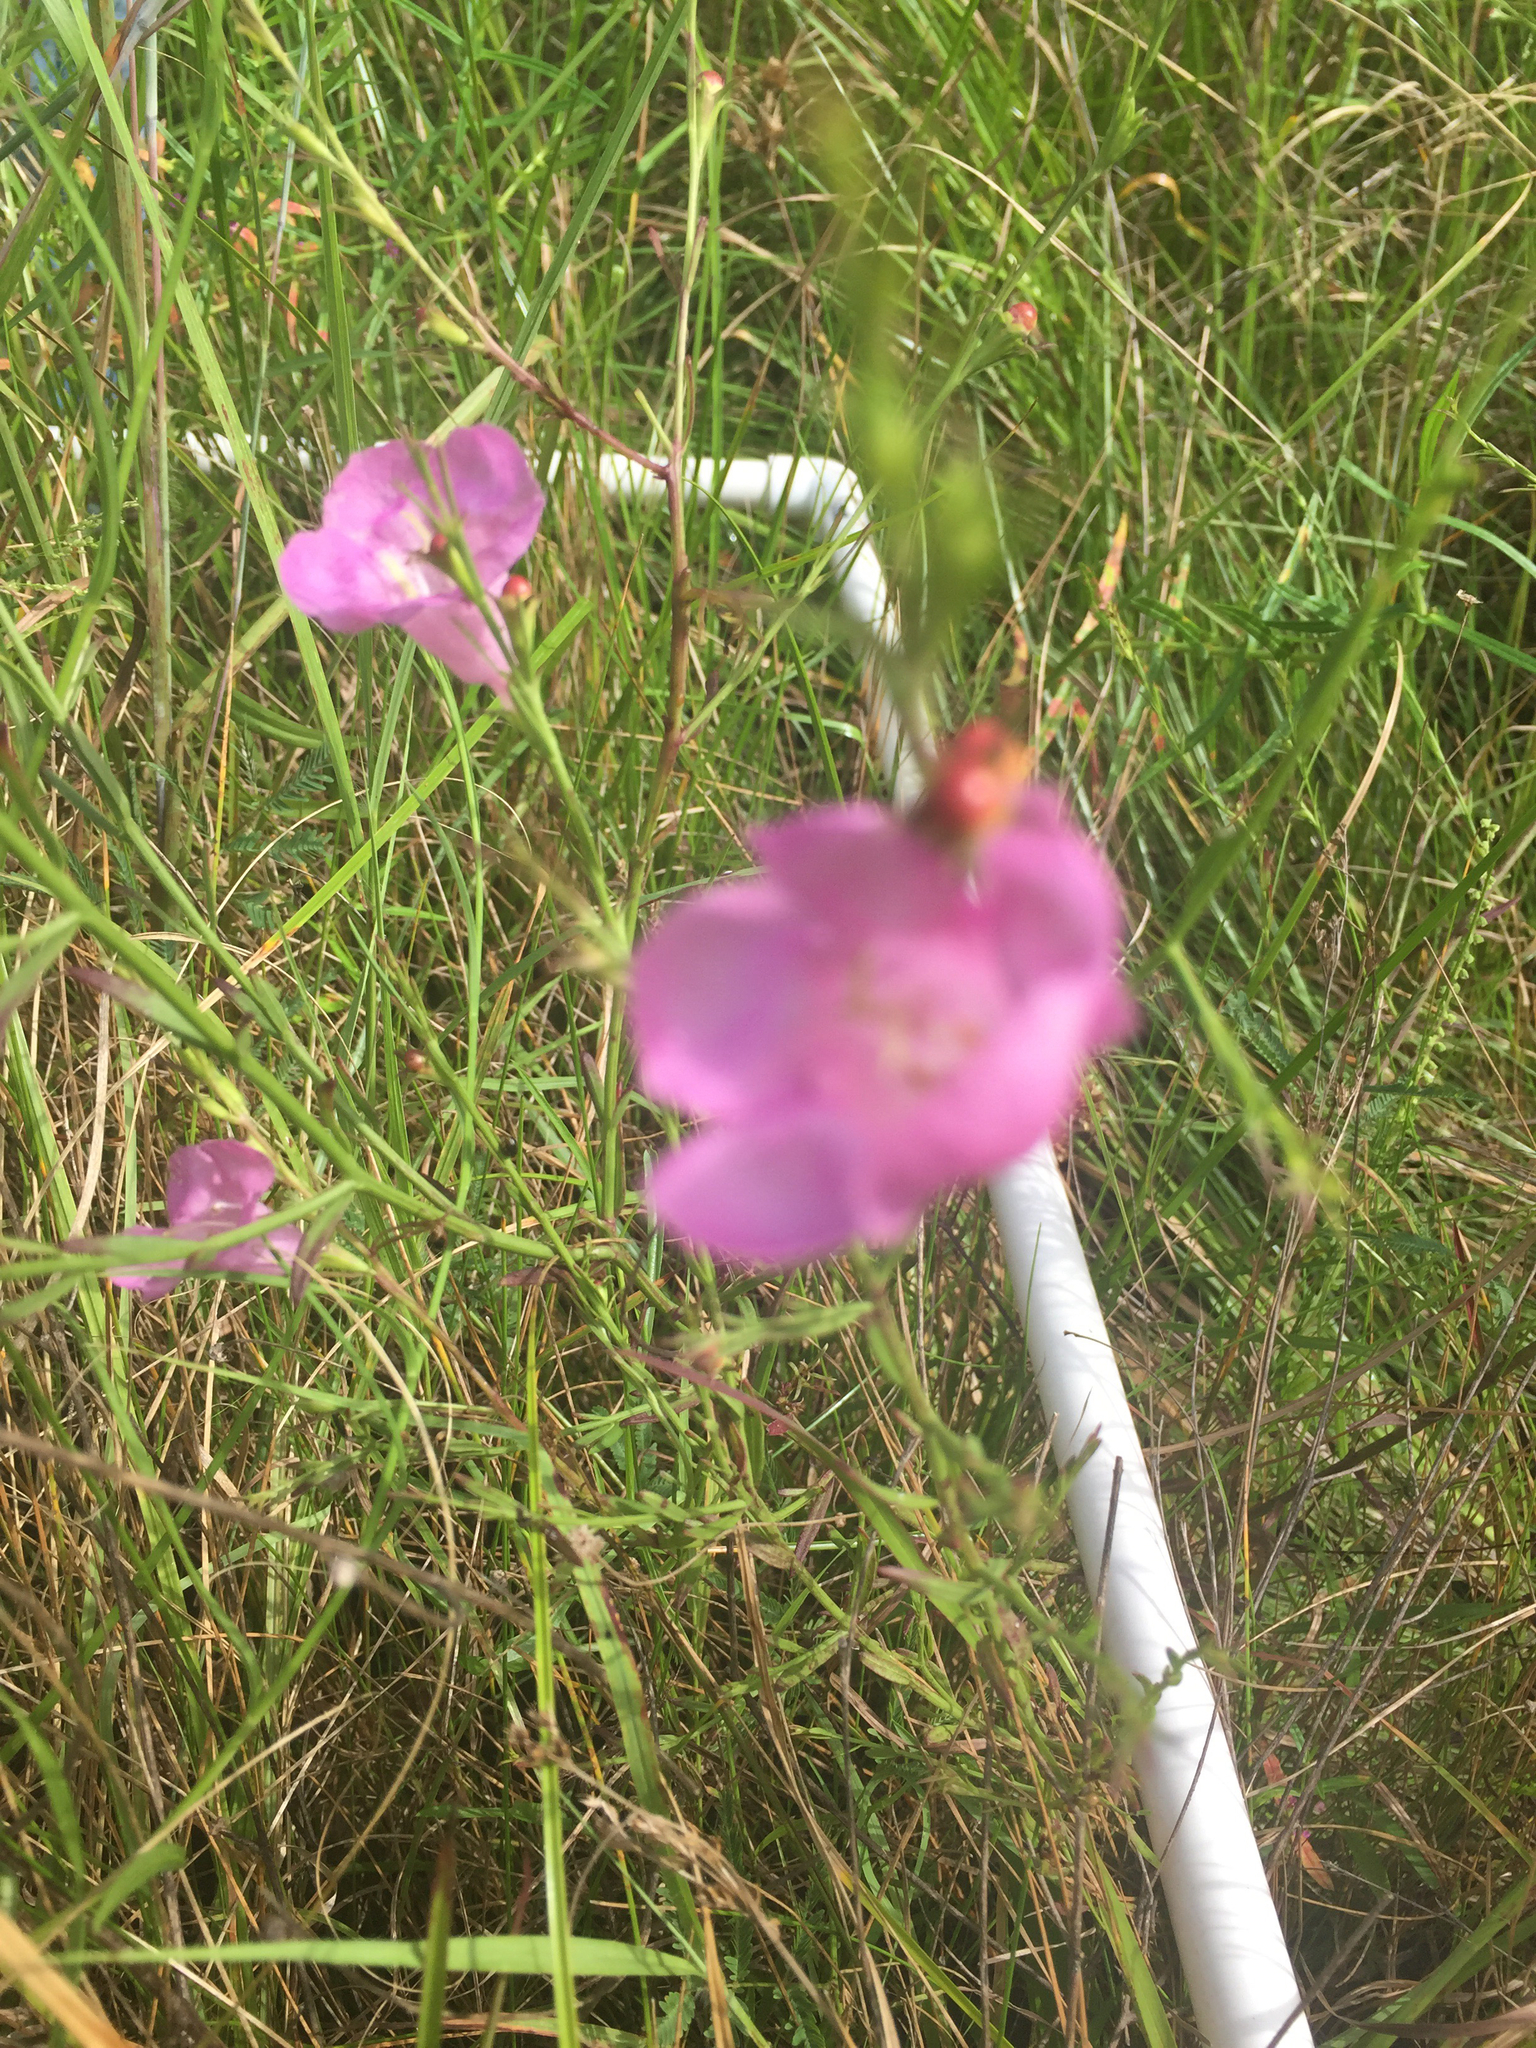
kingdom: Plantae
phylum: Tracheophyta
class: Magnoliopsida
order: Lamiales
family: Orobanchaceae
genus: Agalinis
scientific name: Agalinis heterophylla
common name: Prairie agalinis
